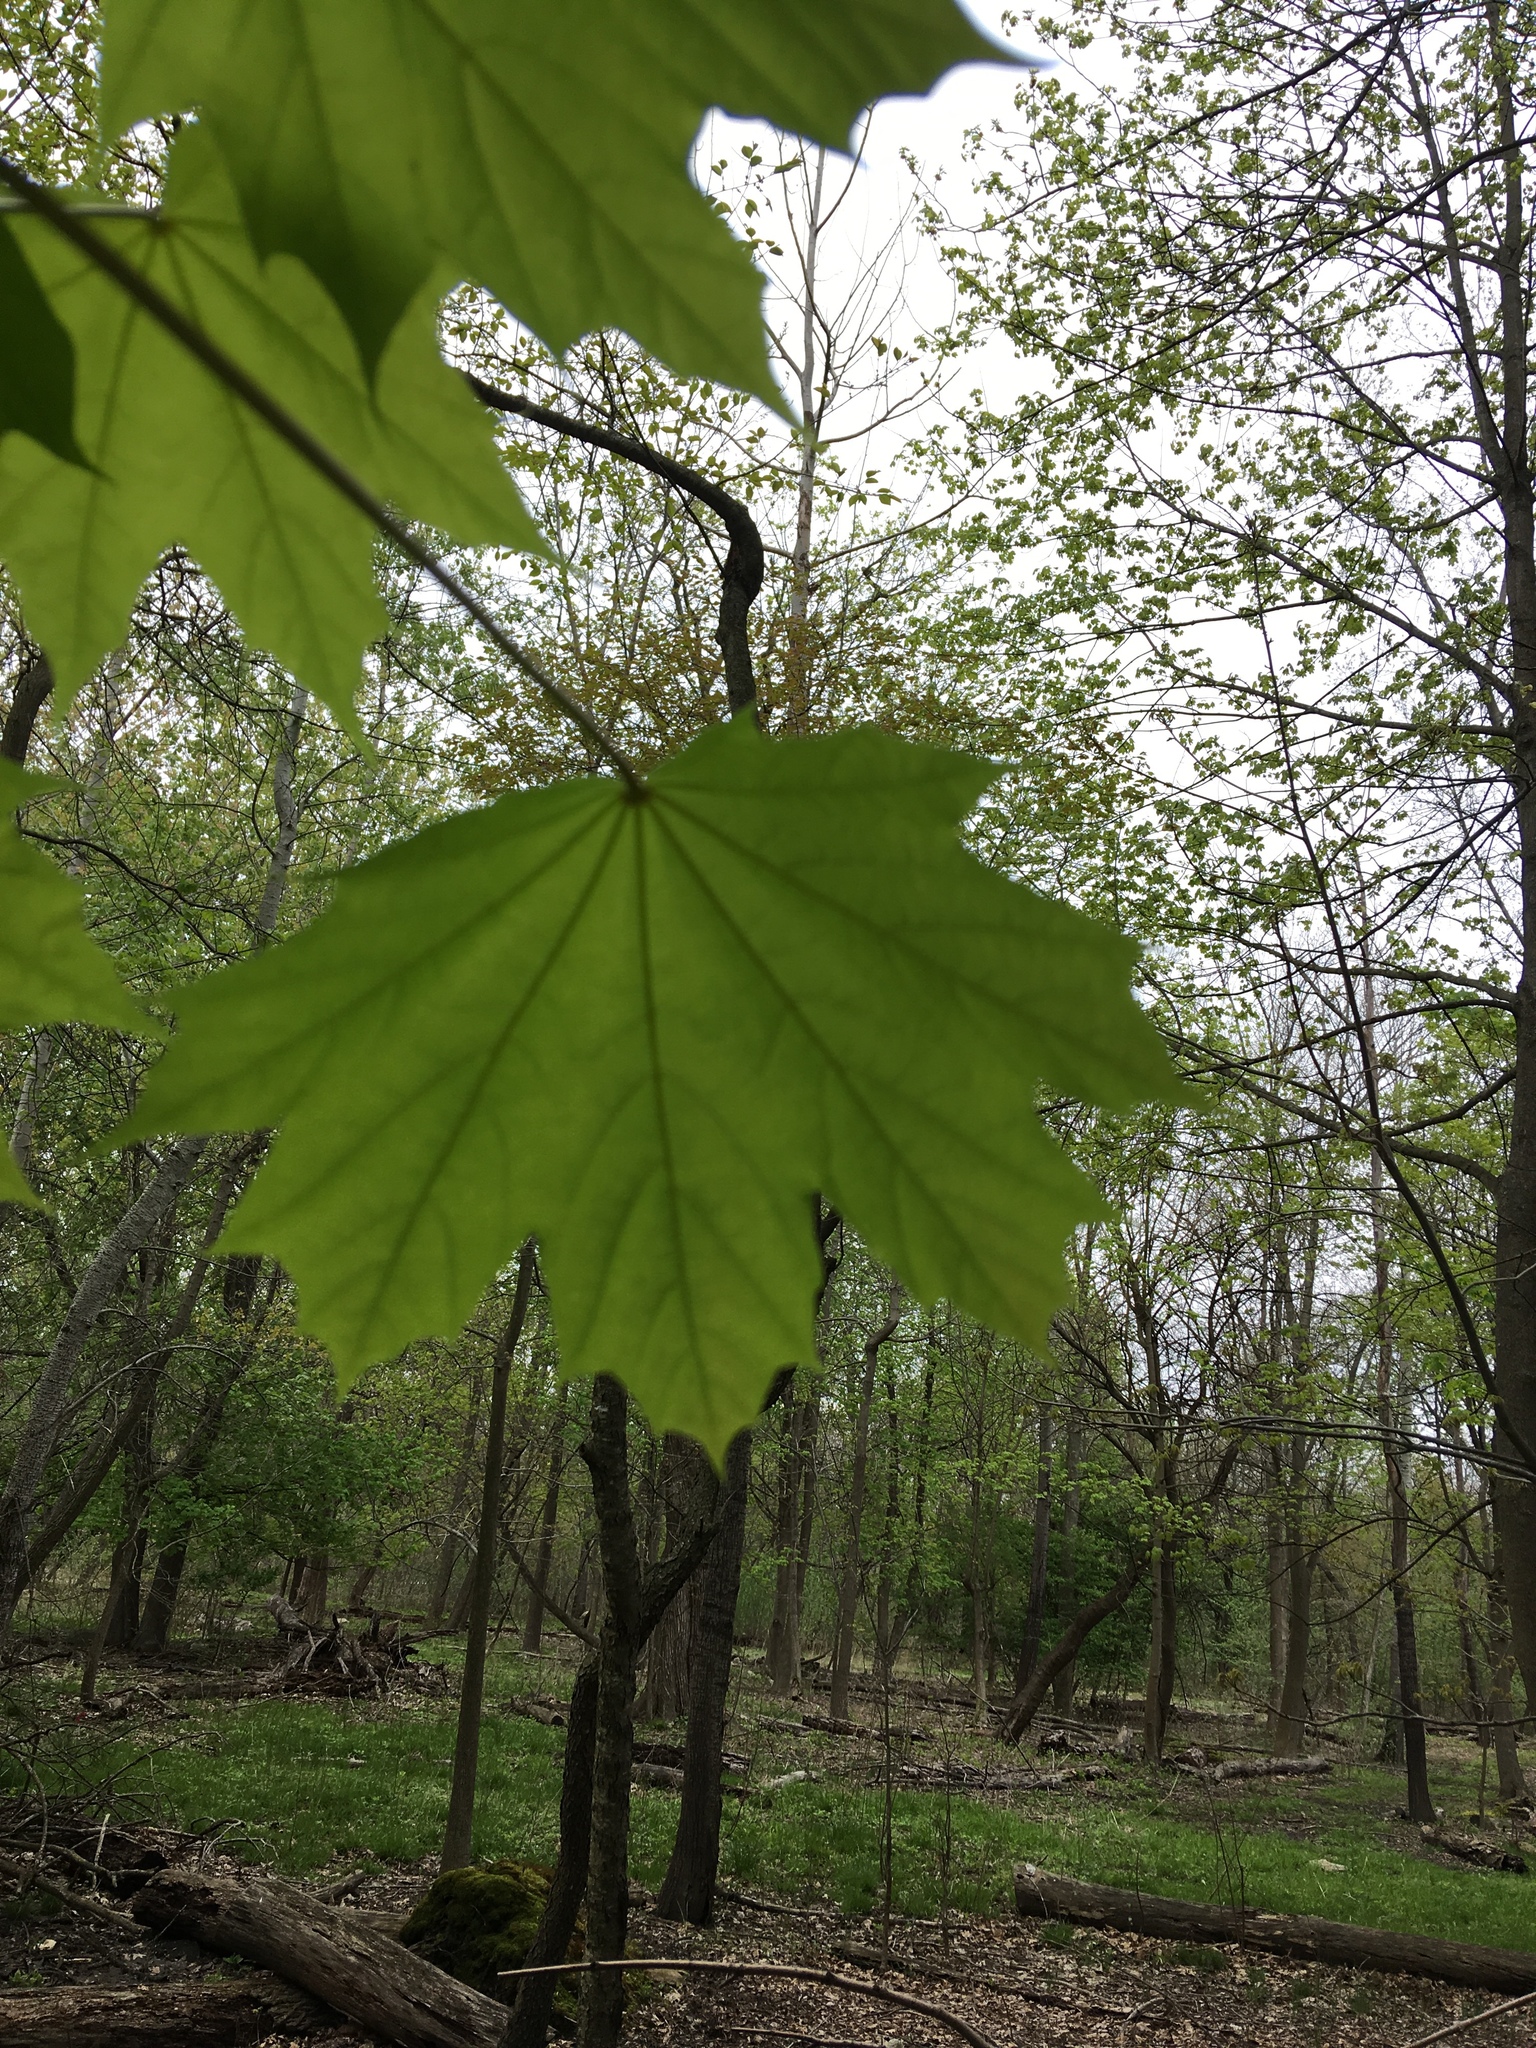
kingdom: Plantae
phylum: Tracheophyta
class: Magnoliopsida
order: Sapindales
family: Sapindaceae
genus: Acer
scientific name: Acer platanoides
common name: Norway maple
